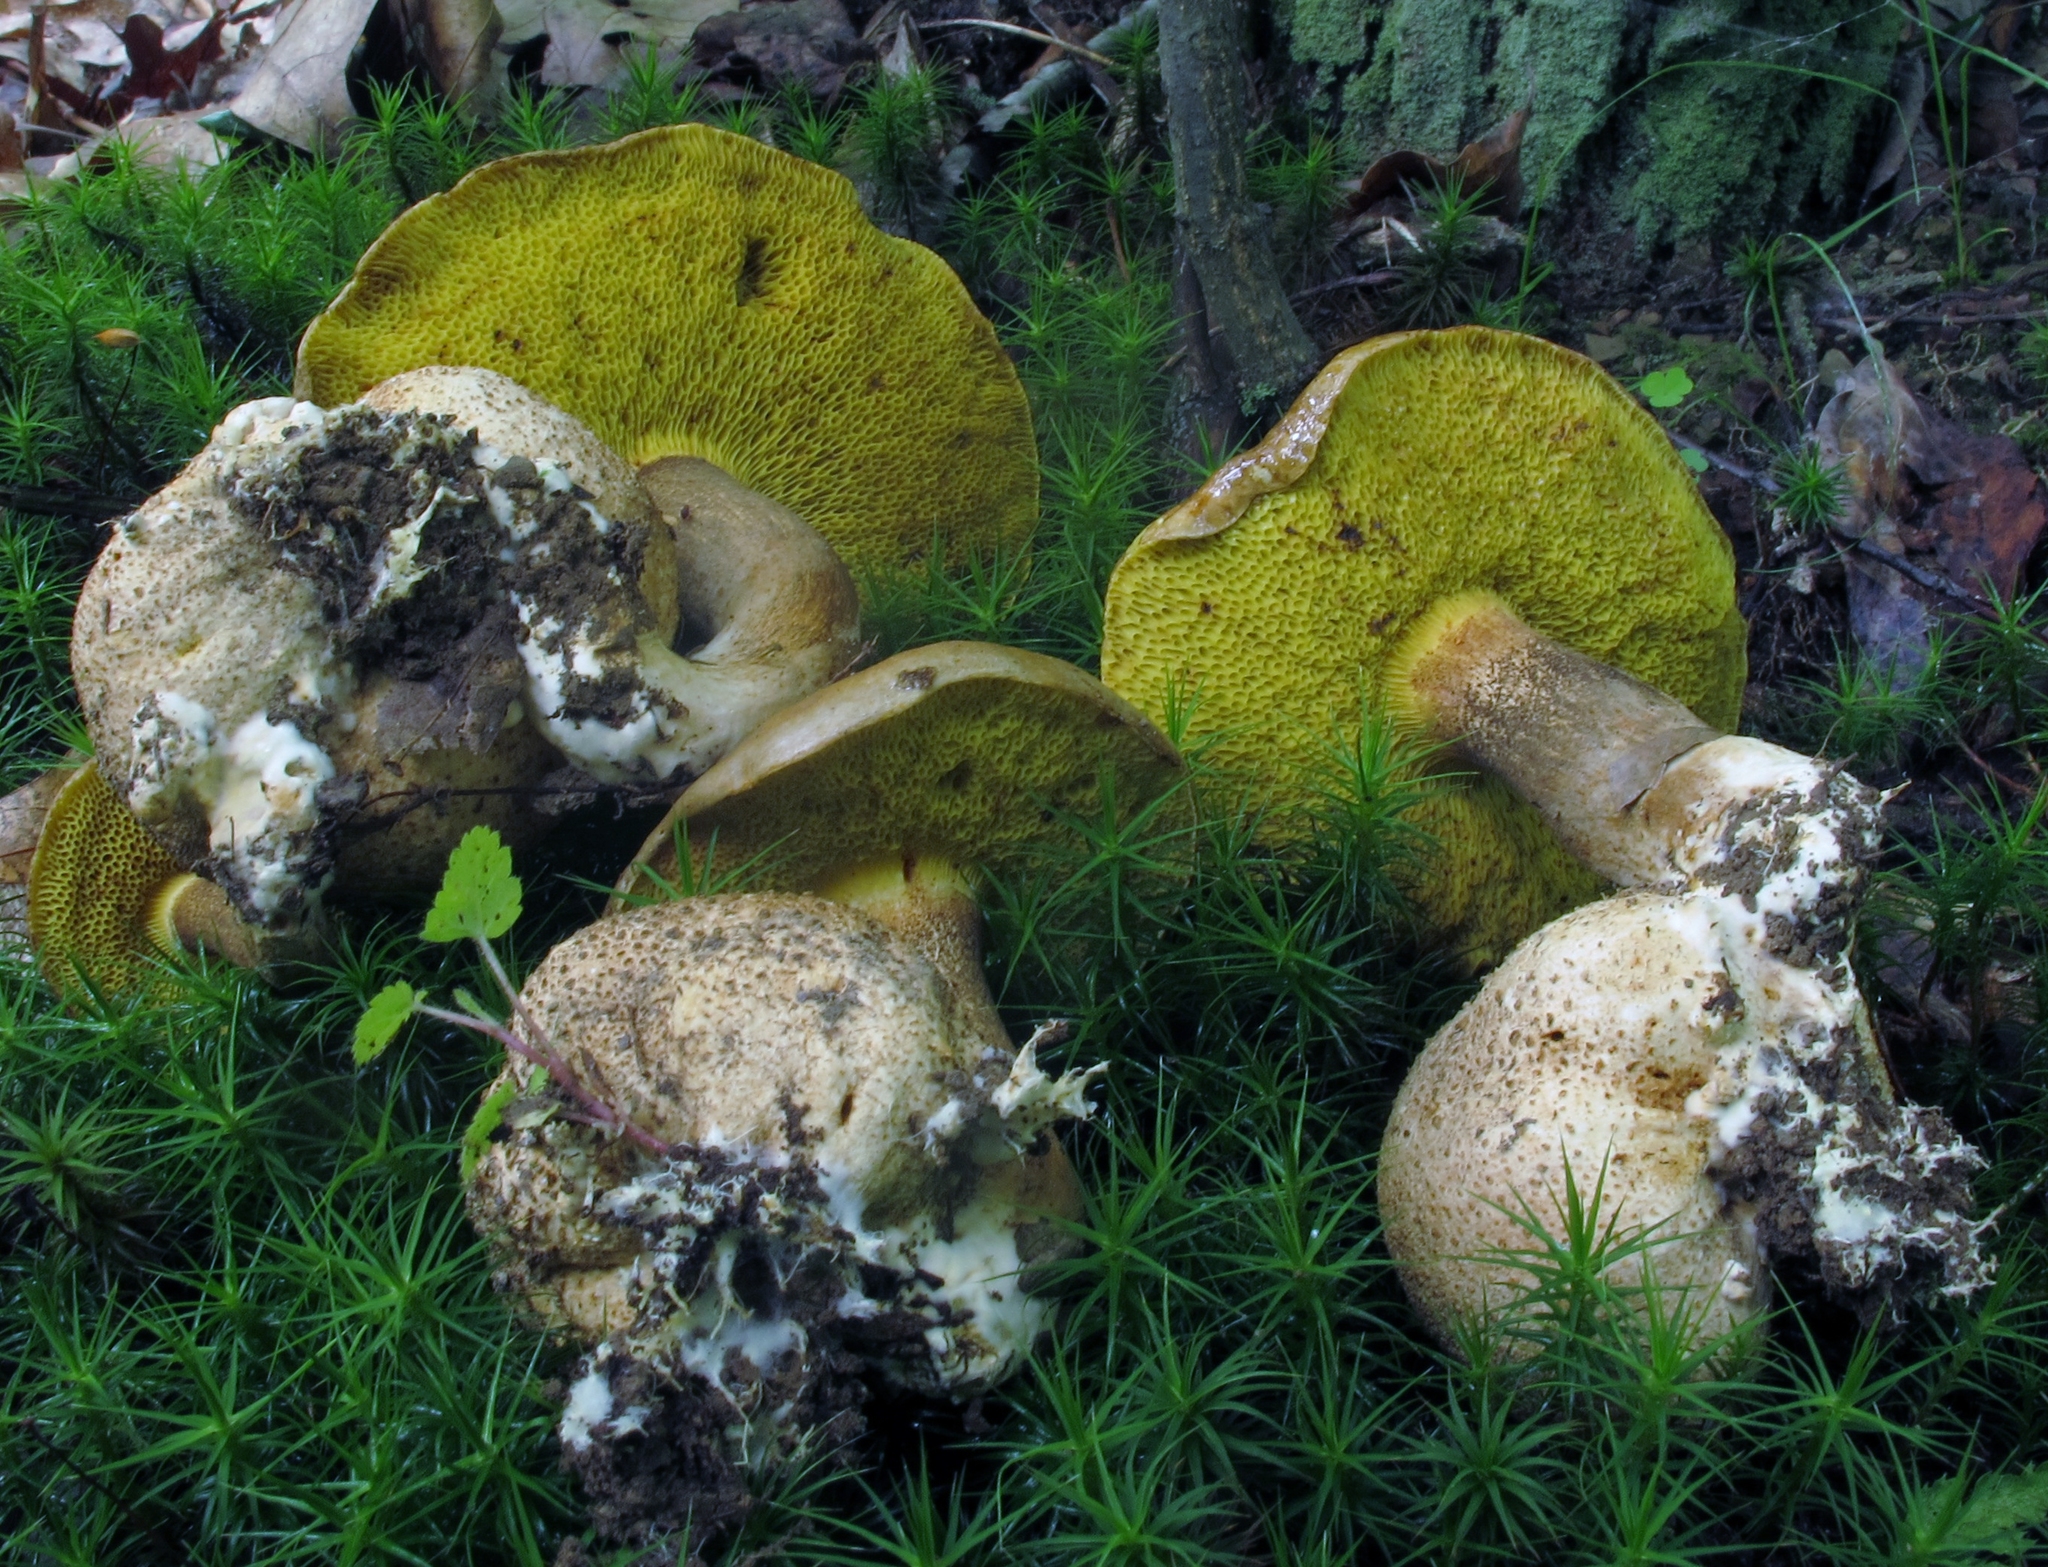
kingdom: Fungi
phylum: Basidiomycota
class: Agaricomycetes
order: Boletales
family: Boletaceae
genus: Pseudoboletus
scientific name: Pseudoboletus parasiticus
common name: Parasitic bolete
